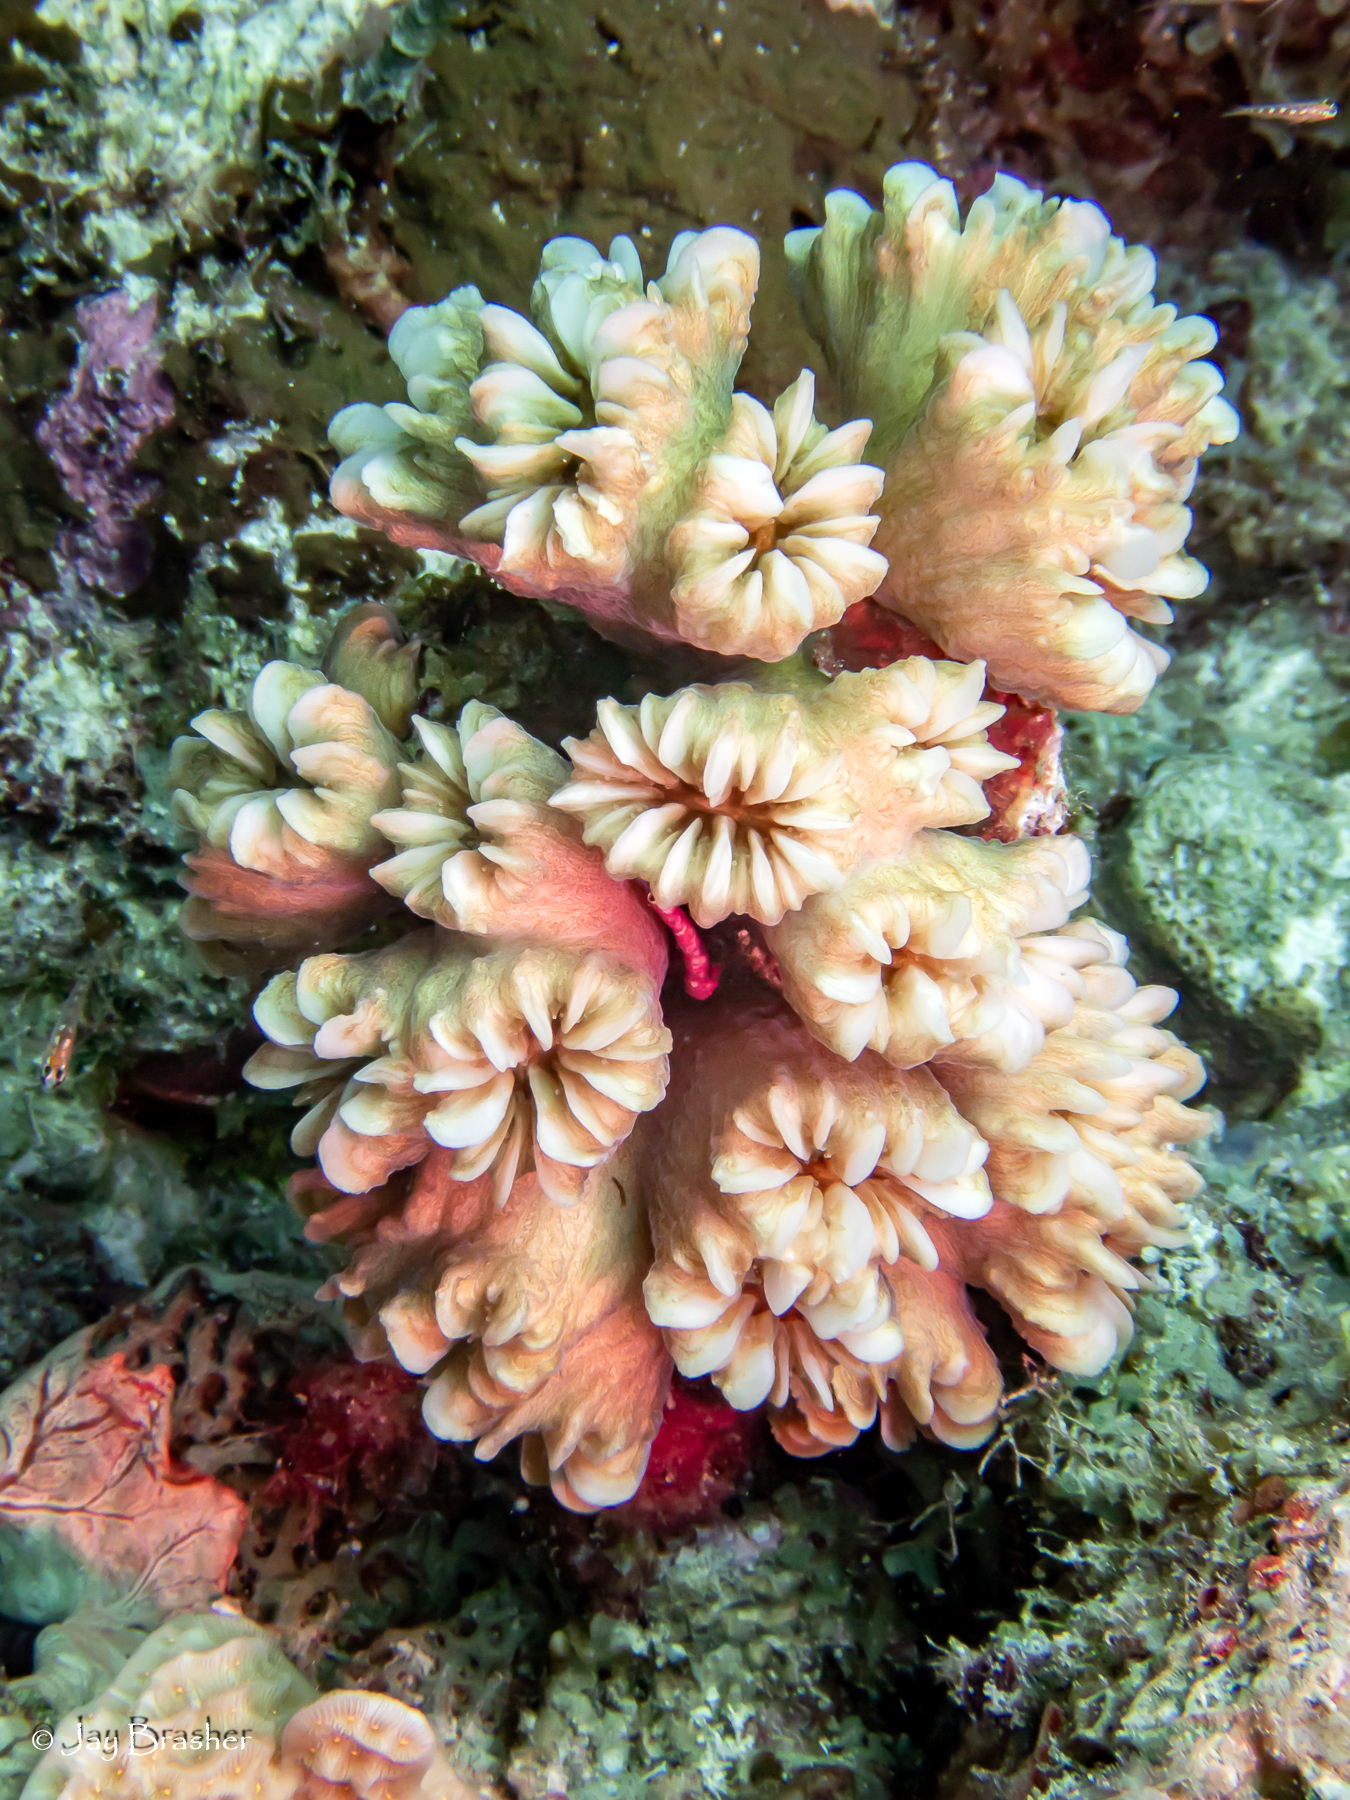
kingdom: Animalia
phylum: Cnidaria
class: Anthozoa
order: Scleractinia
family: Meandrinidae
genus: Eusmilia
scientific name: Eusmilia fastigiata
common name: Smooth flower coral
